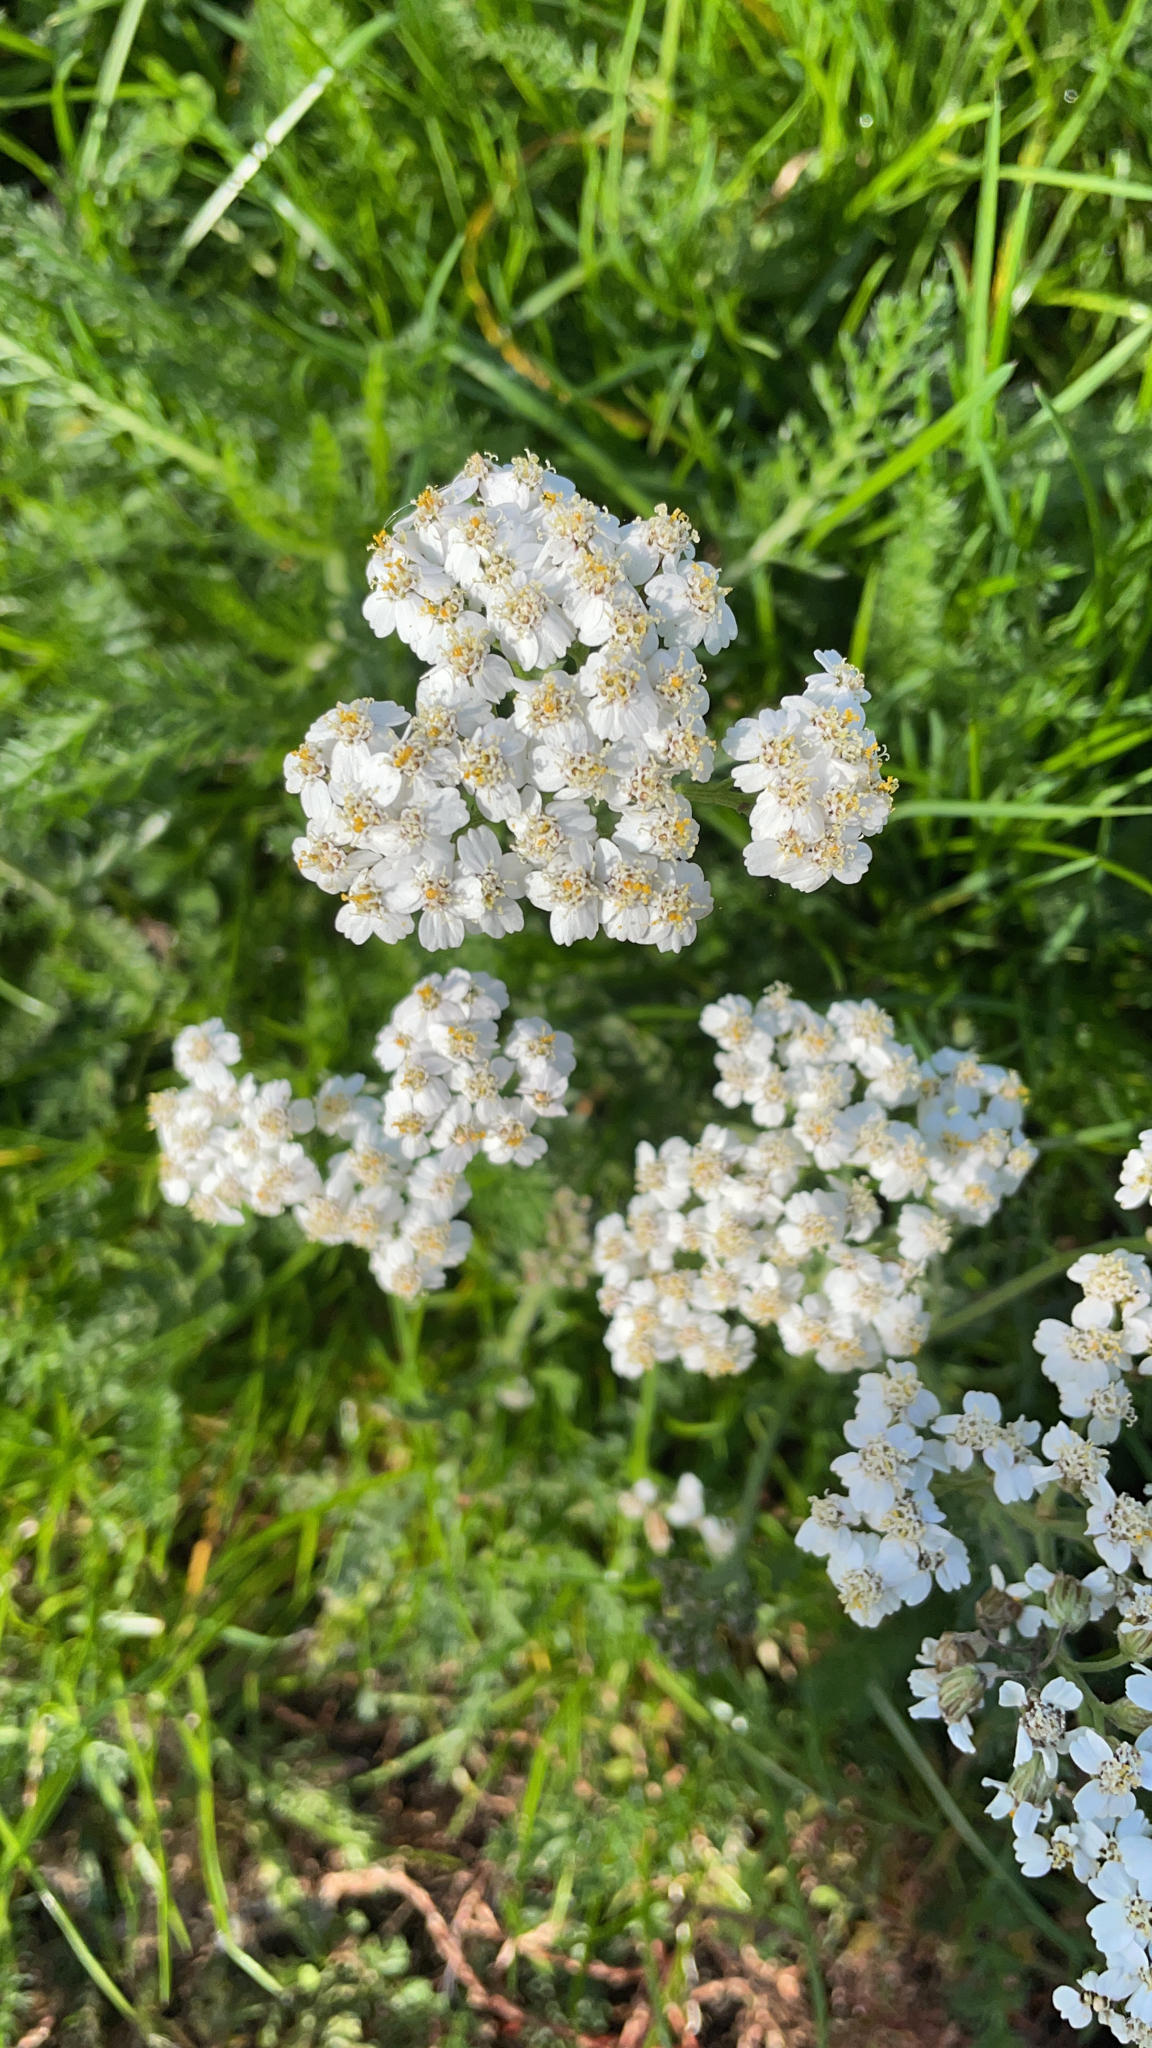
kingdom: Plantae
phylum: Tracheophyta
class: Magnoliopsida
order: Asterales
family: Asteraceae
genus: Achillea
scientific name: Achillea millefolium
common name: Yarrow
